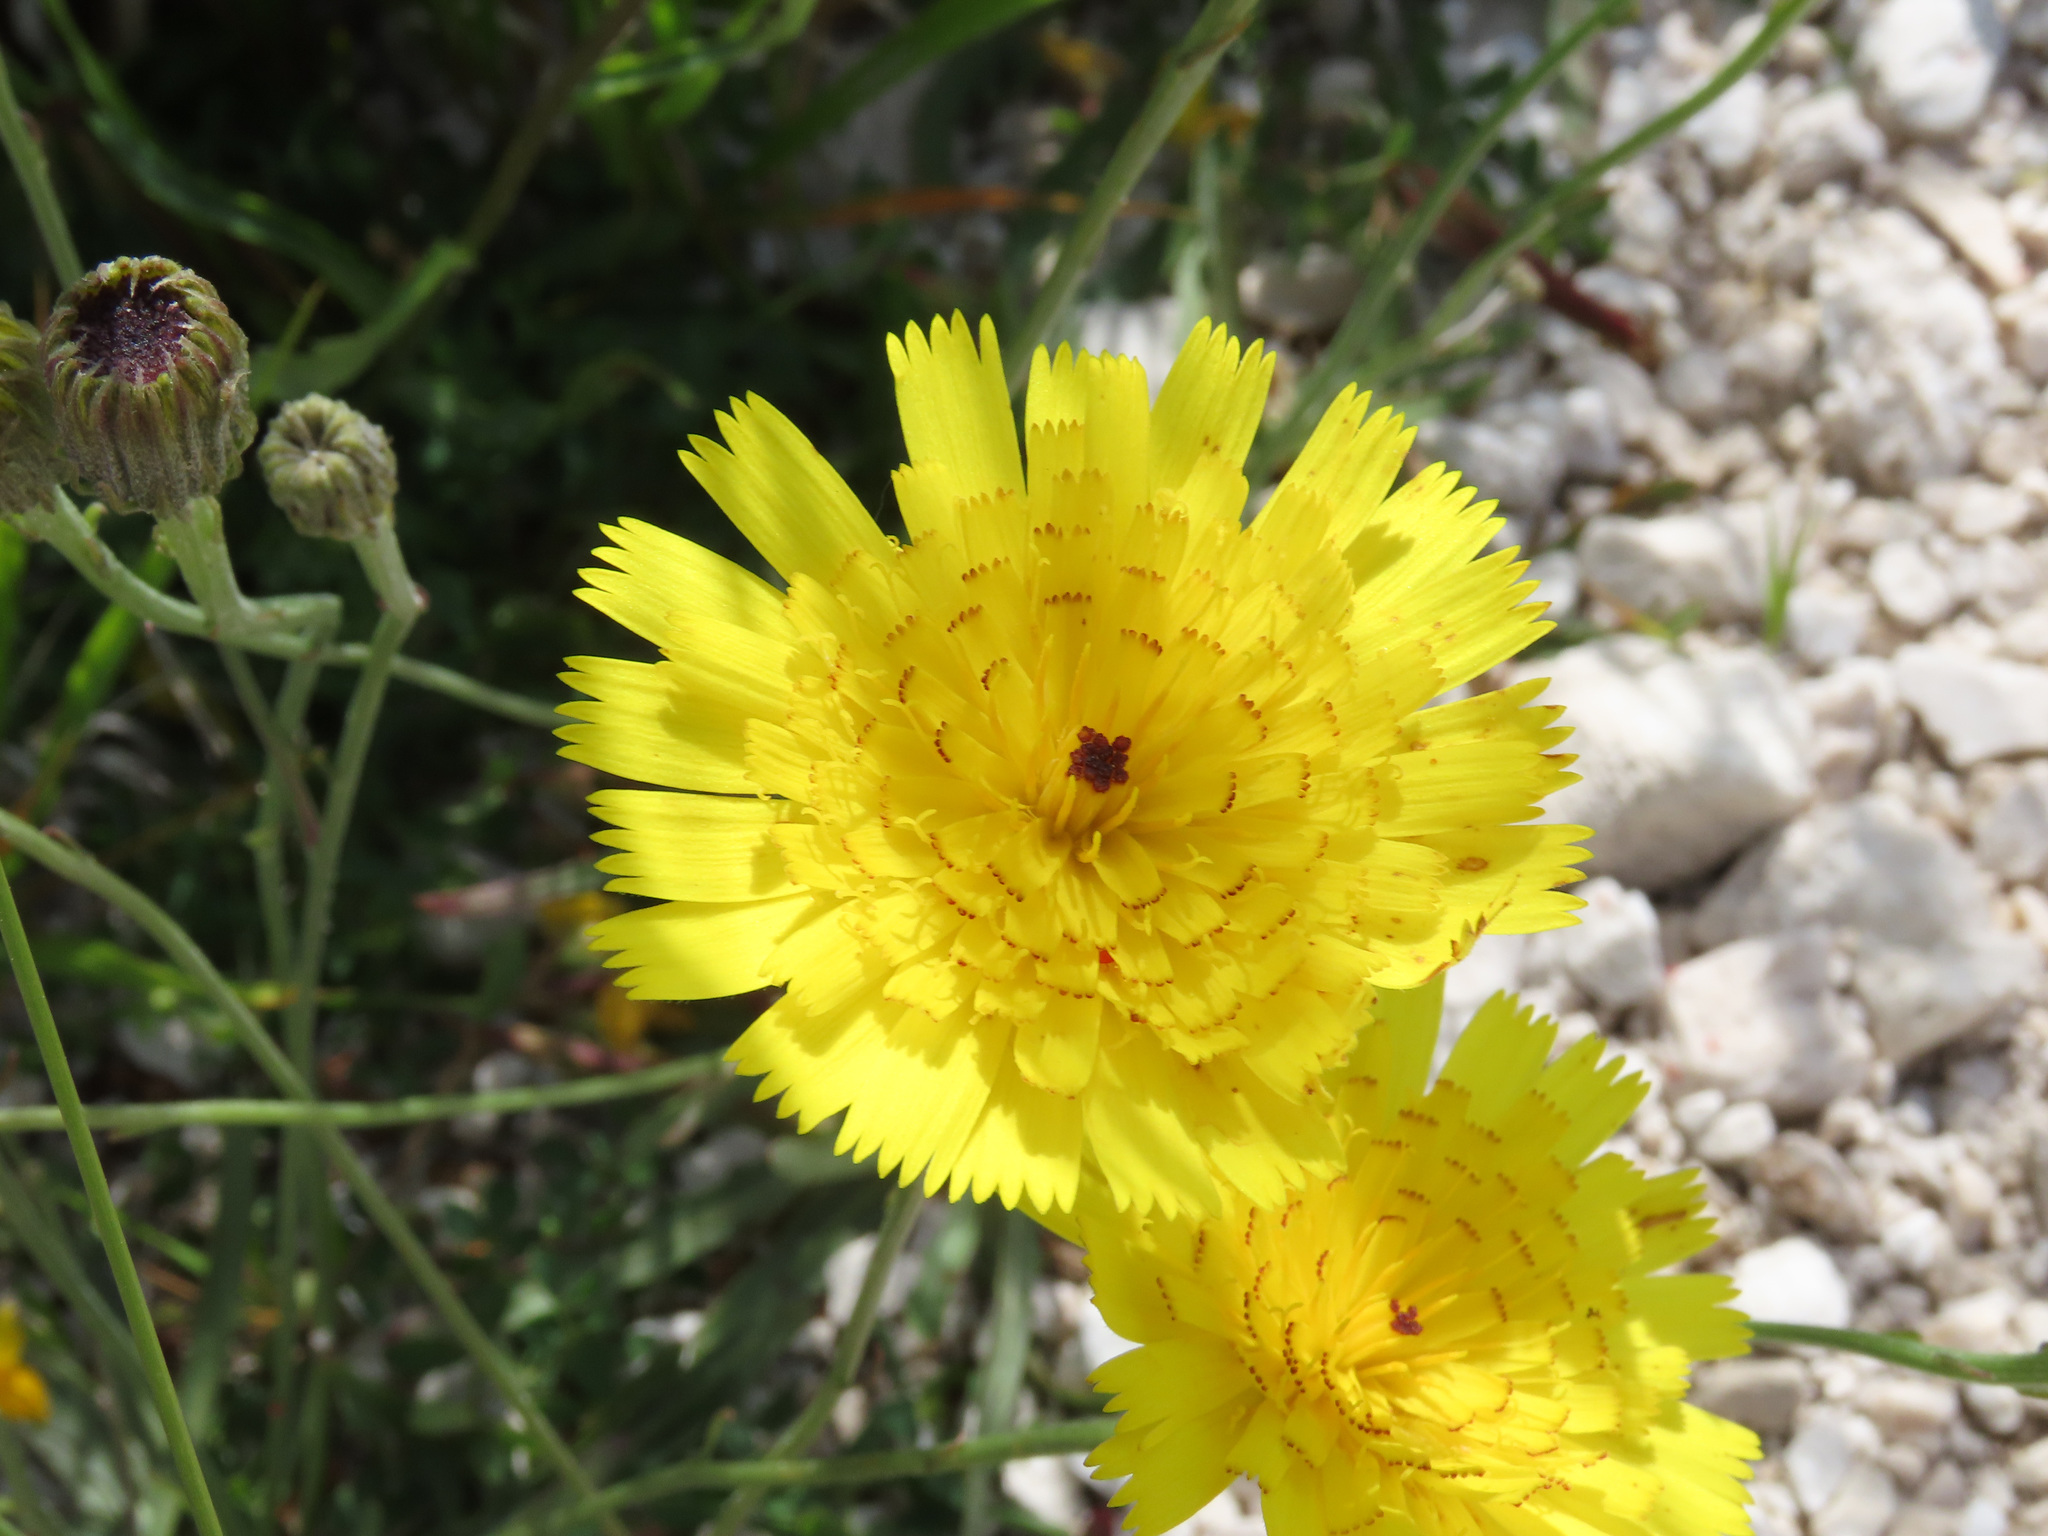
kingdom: Plantae
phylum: Tracheophyta
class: Magnoliopsida
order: Asterales
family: Asteraceae
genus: Tolpis
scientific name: Tolpis staticifolia
